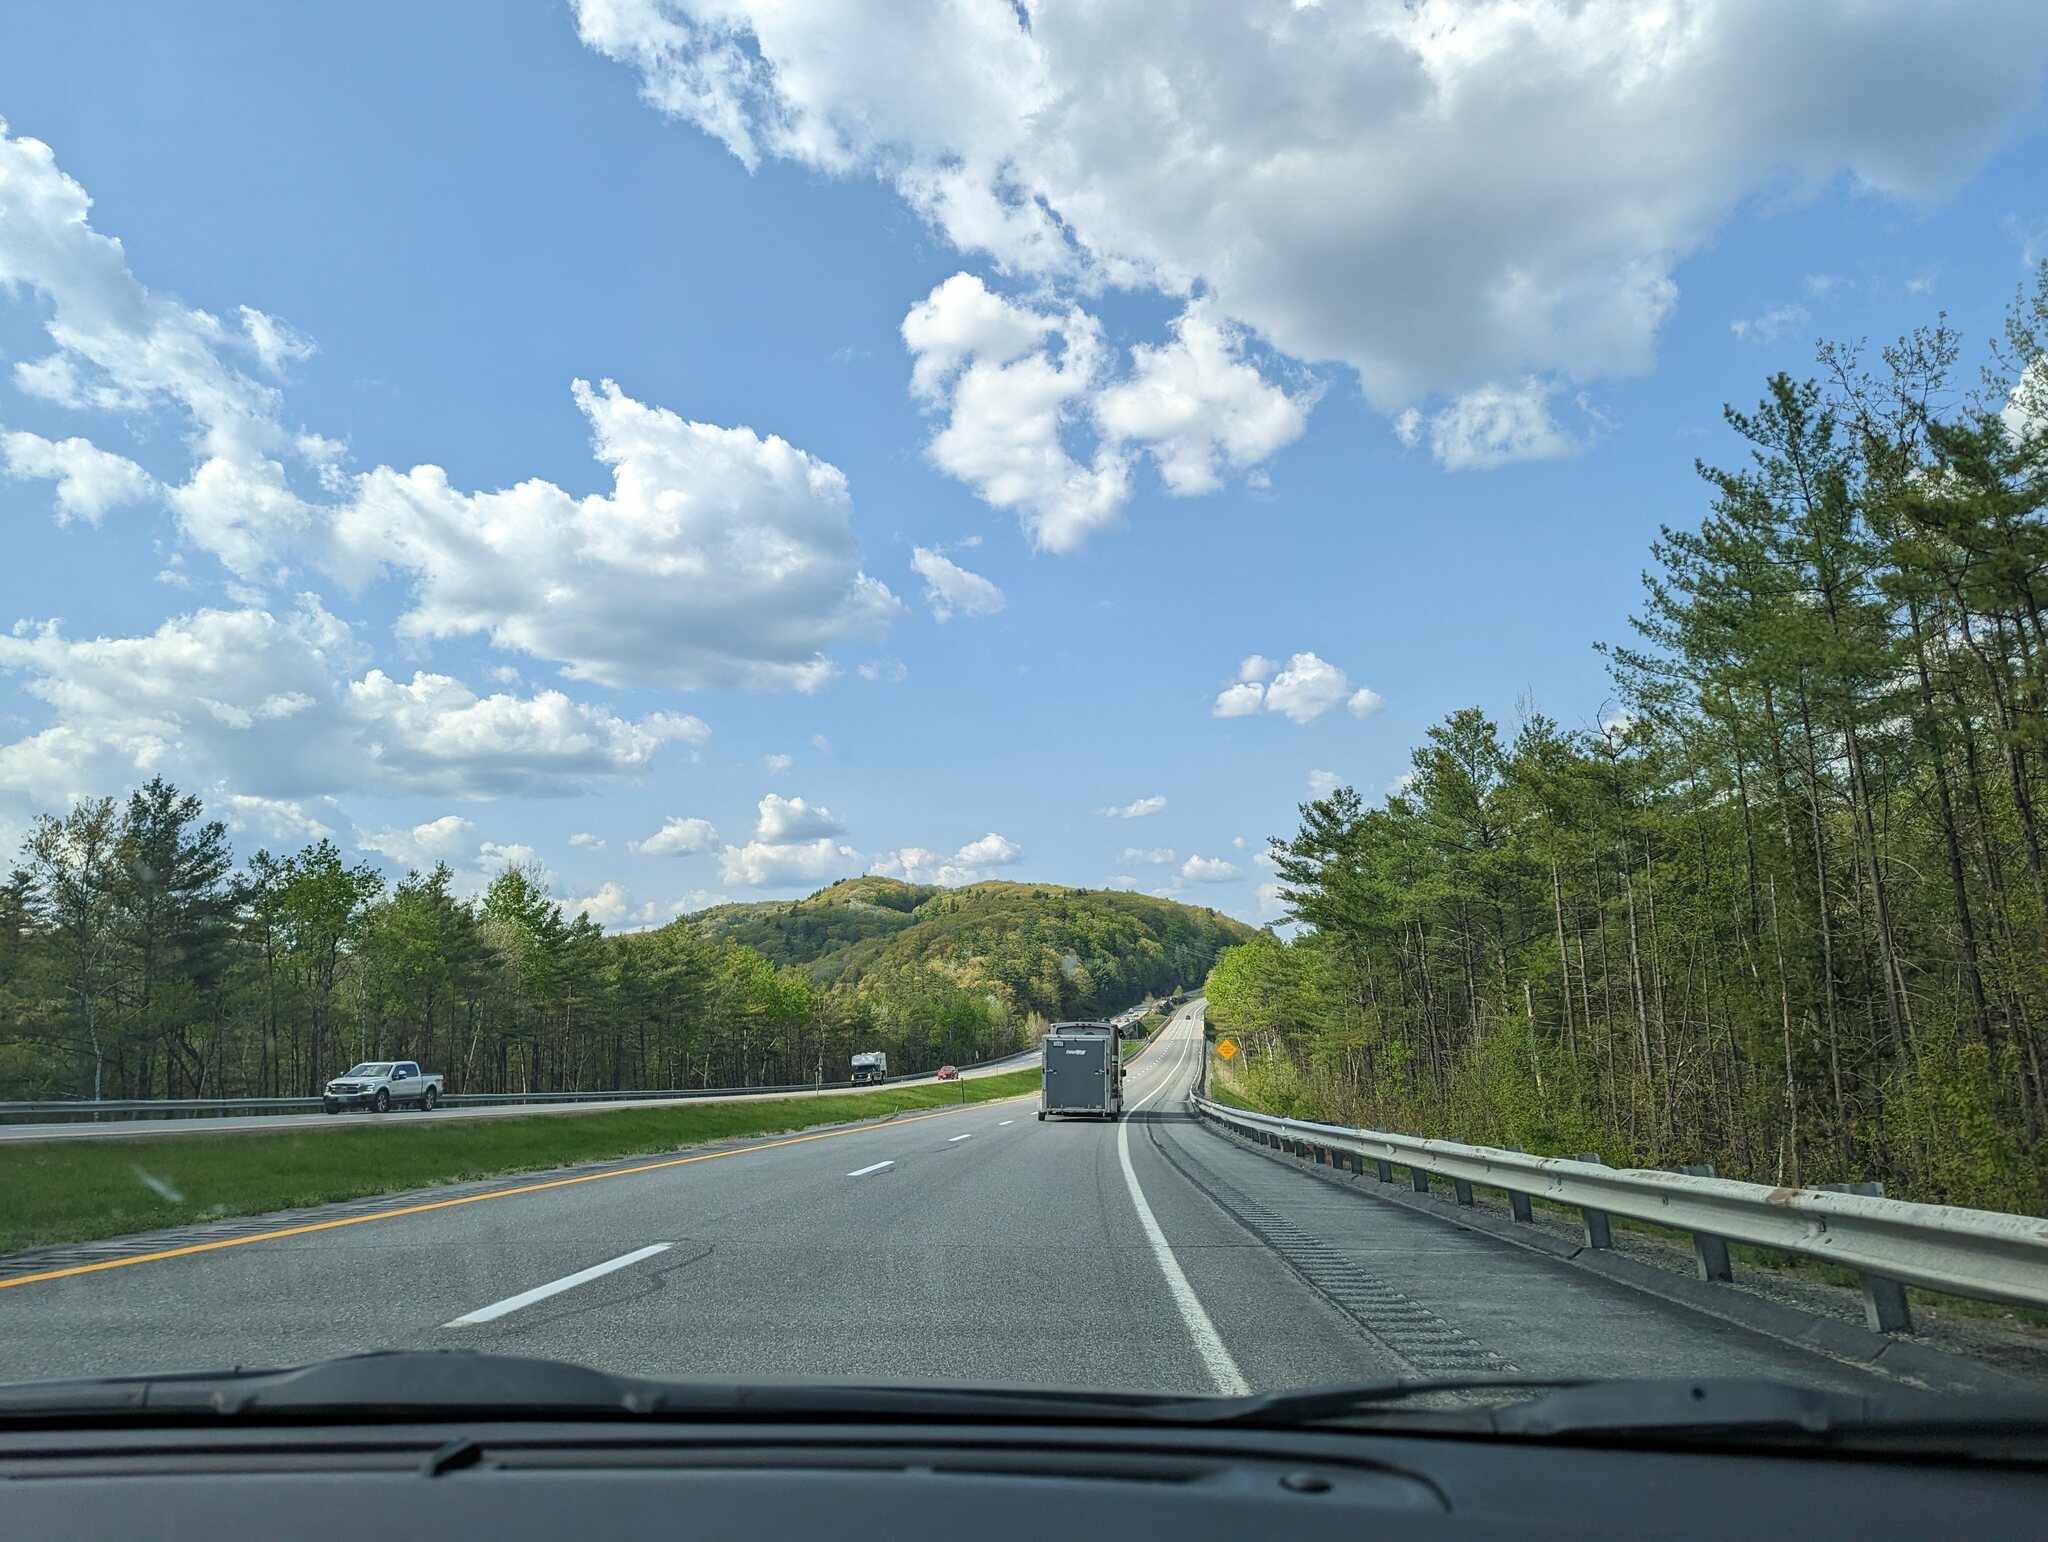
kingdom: Plantae
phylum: Tracheophyta
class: Pinopsida
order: Pinales
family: Pinaceae
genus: Pinus
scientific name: Pinus strobus
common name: Weymouth pine
